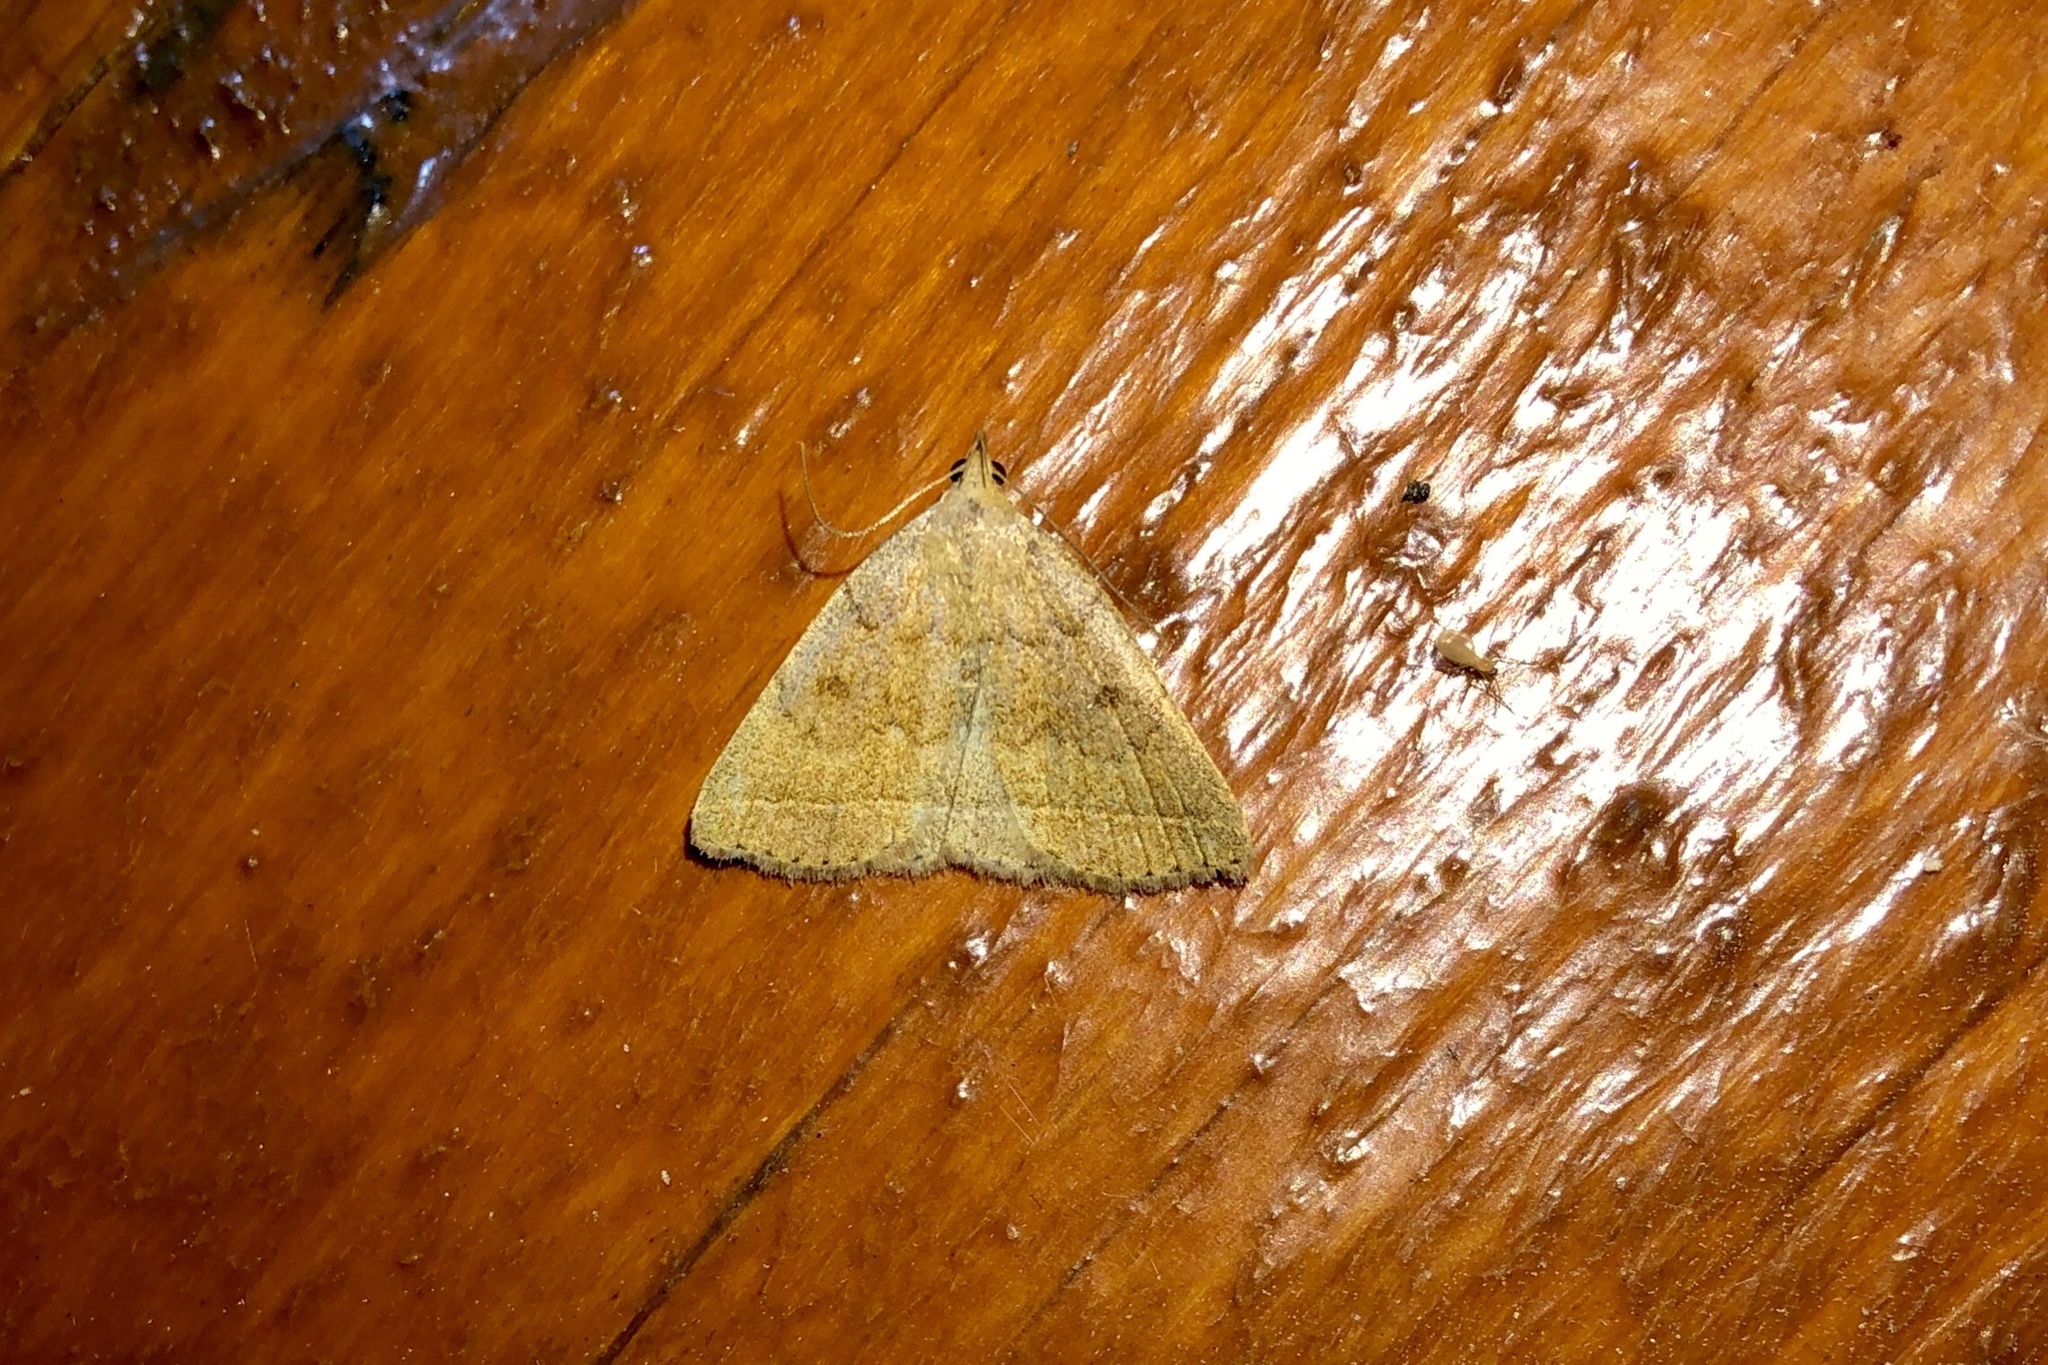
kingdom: Animalia
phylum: Arthropoda
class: Insecta
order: Lepidoptera
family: Erebidae
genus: Zanclognatha
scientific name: Zanclognatha jacchusalis
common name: Yellowish zanclognatha
